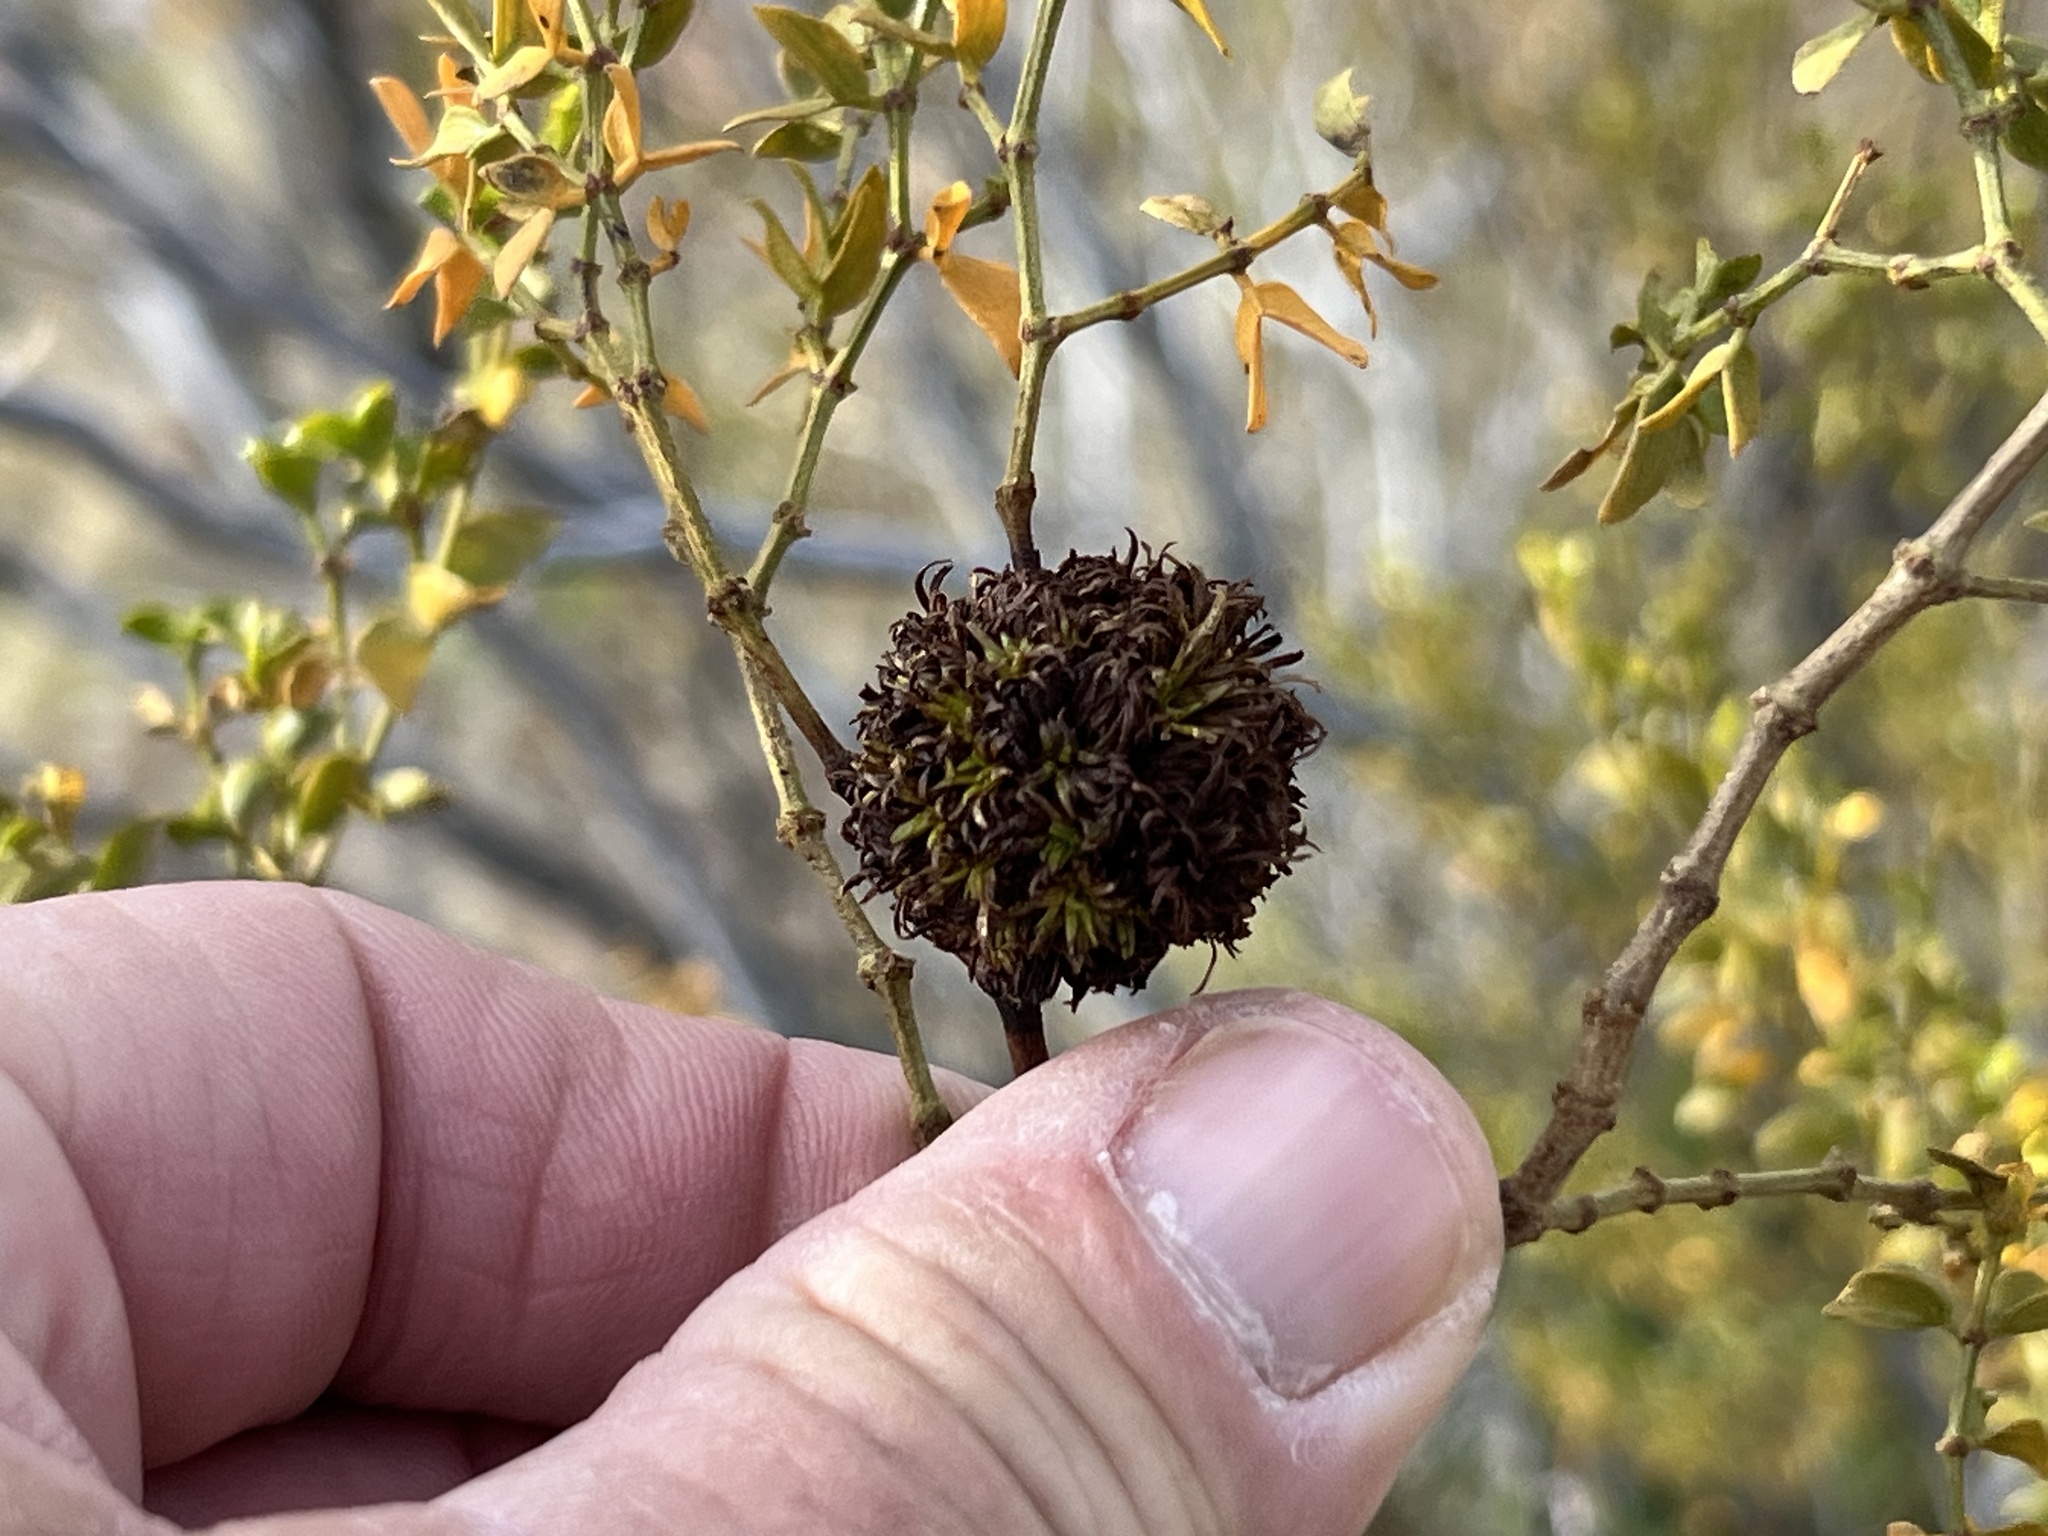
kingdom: Animalia
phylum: Arthropoda
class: Insecta
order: Diptera
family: Cecidomyiidae
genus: Asphondylia
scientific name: Asphondylia auripila
